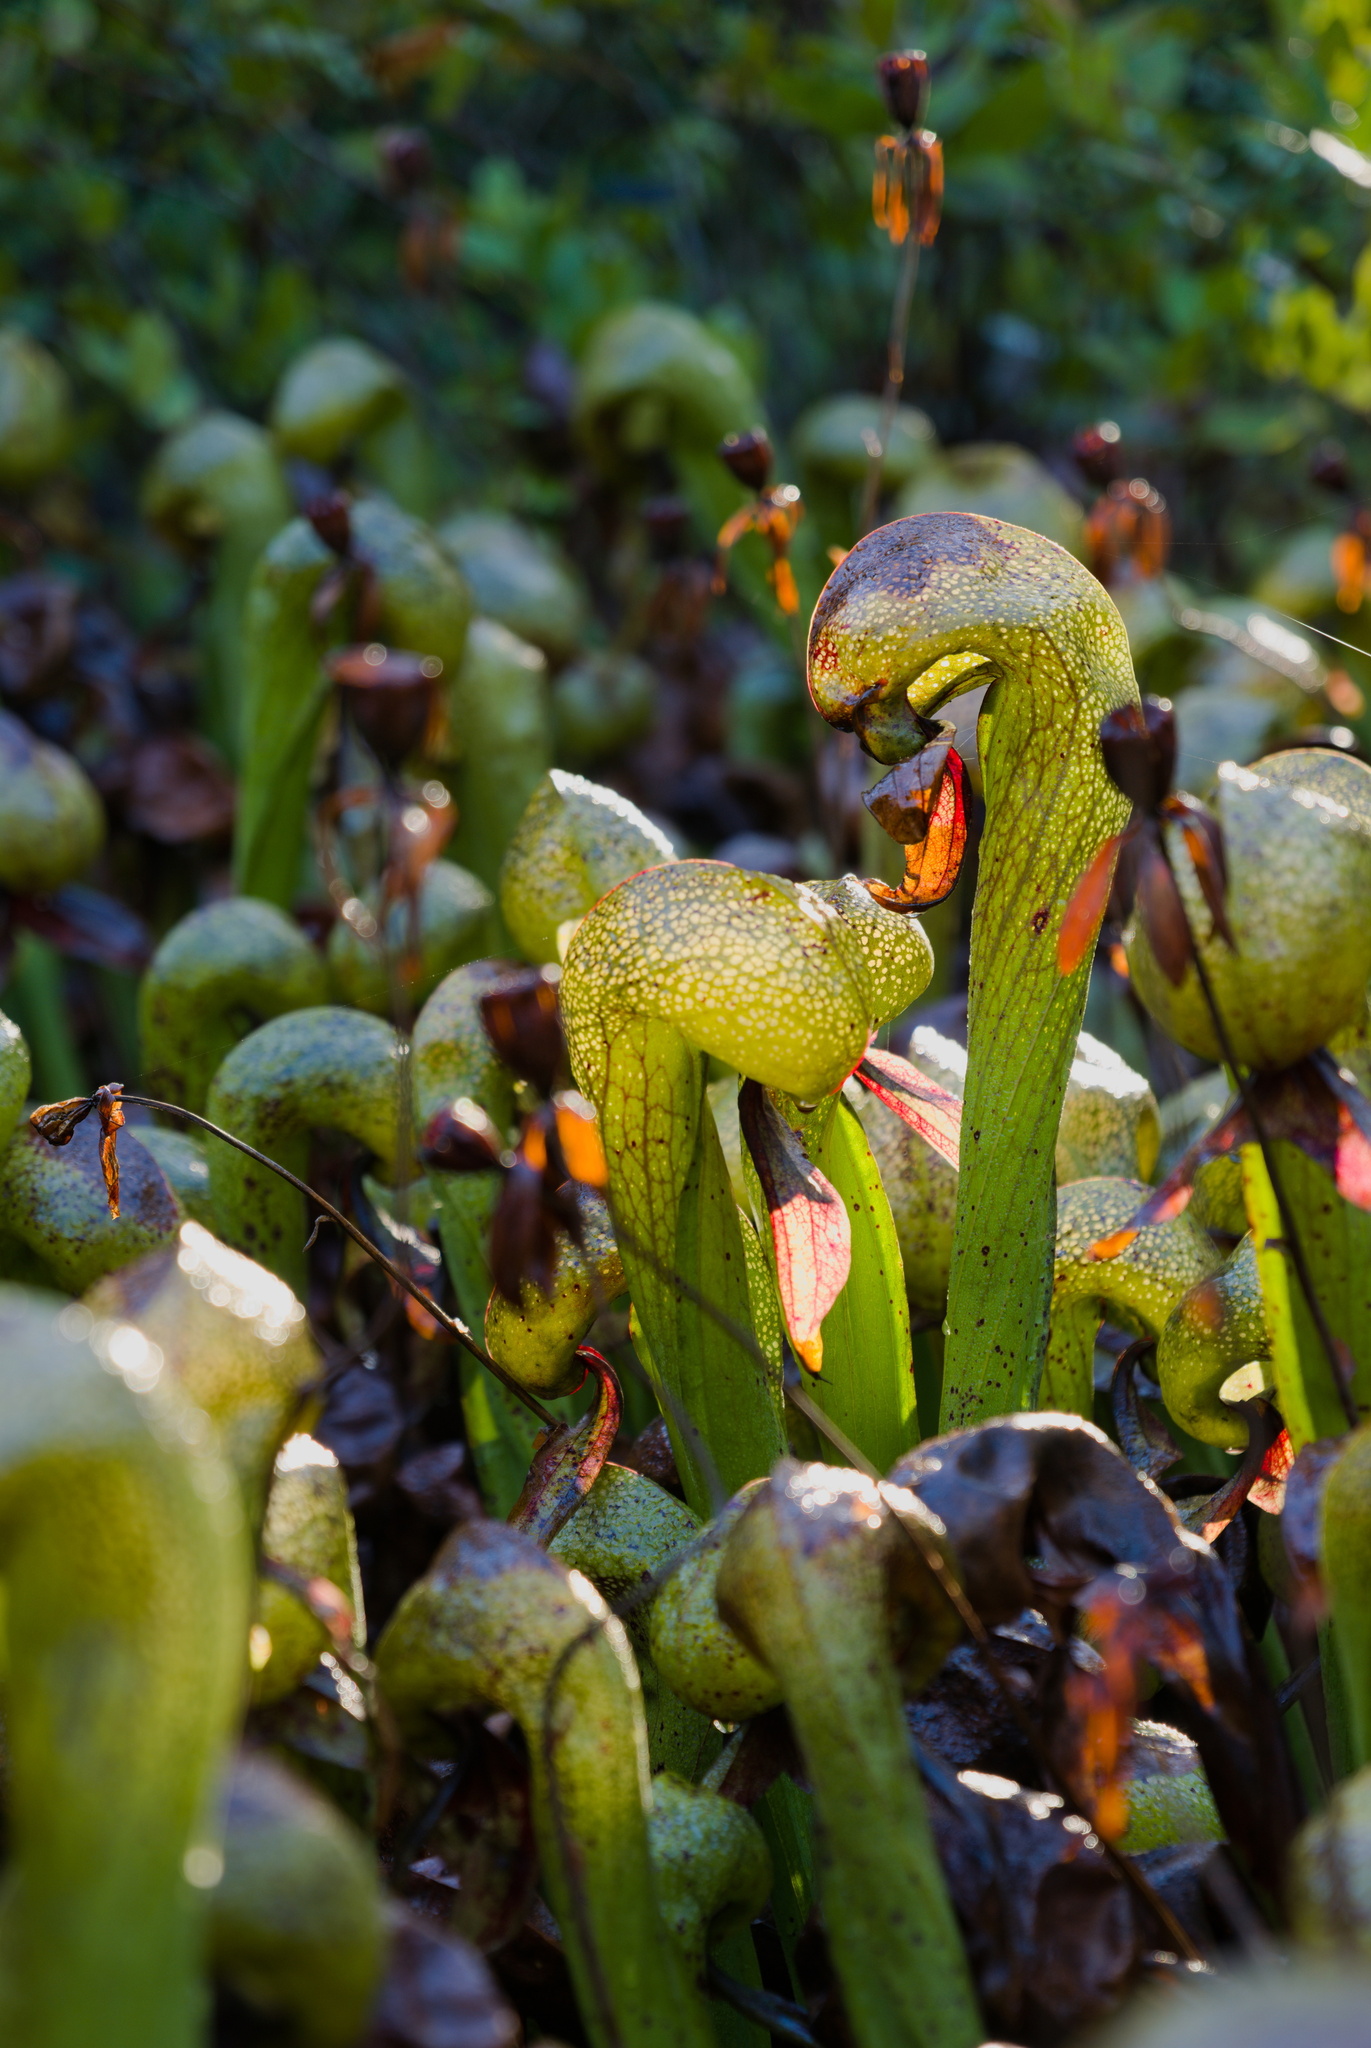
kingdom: Plantae
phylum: Tracheophyta
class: Magnoliopsida
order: Ericales
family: Sarraceniaceae
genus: Darlingtonia
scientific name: Darlingtonia californica
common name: California pitcher plant
